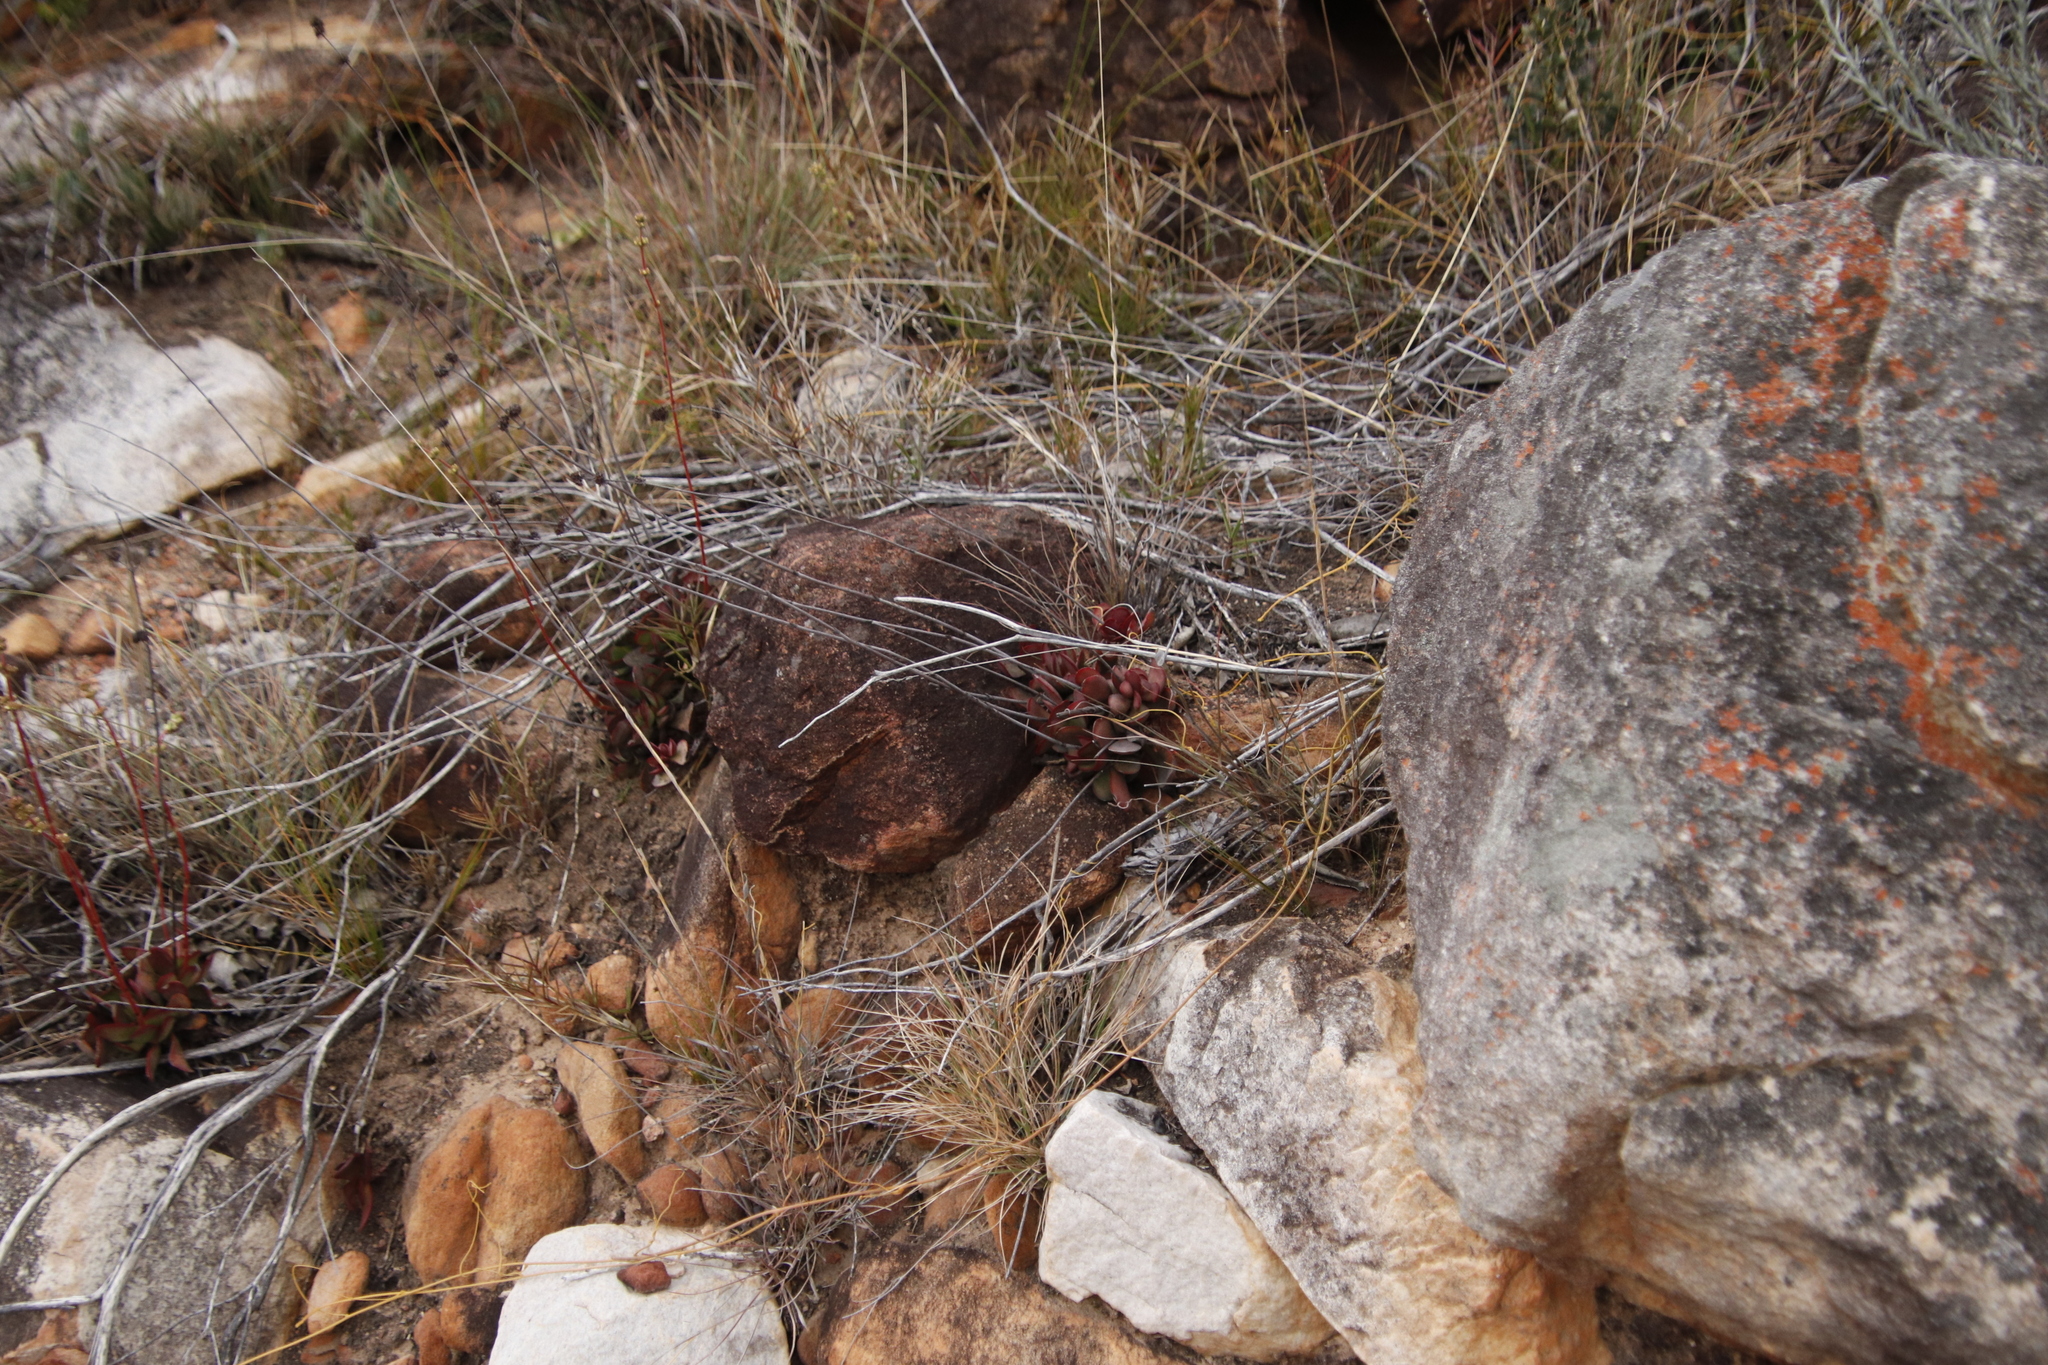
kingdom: Plantae
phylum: Tracheophyta
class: Magnoliopsida
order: Saxifragales
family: Crassulaceae
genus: Crassula
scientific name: Crassula pubescens
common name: Jersey pigmyweed
